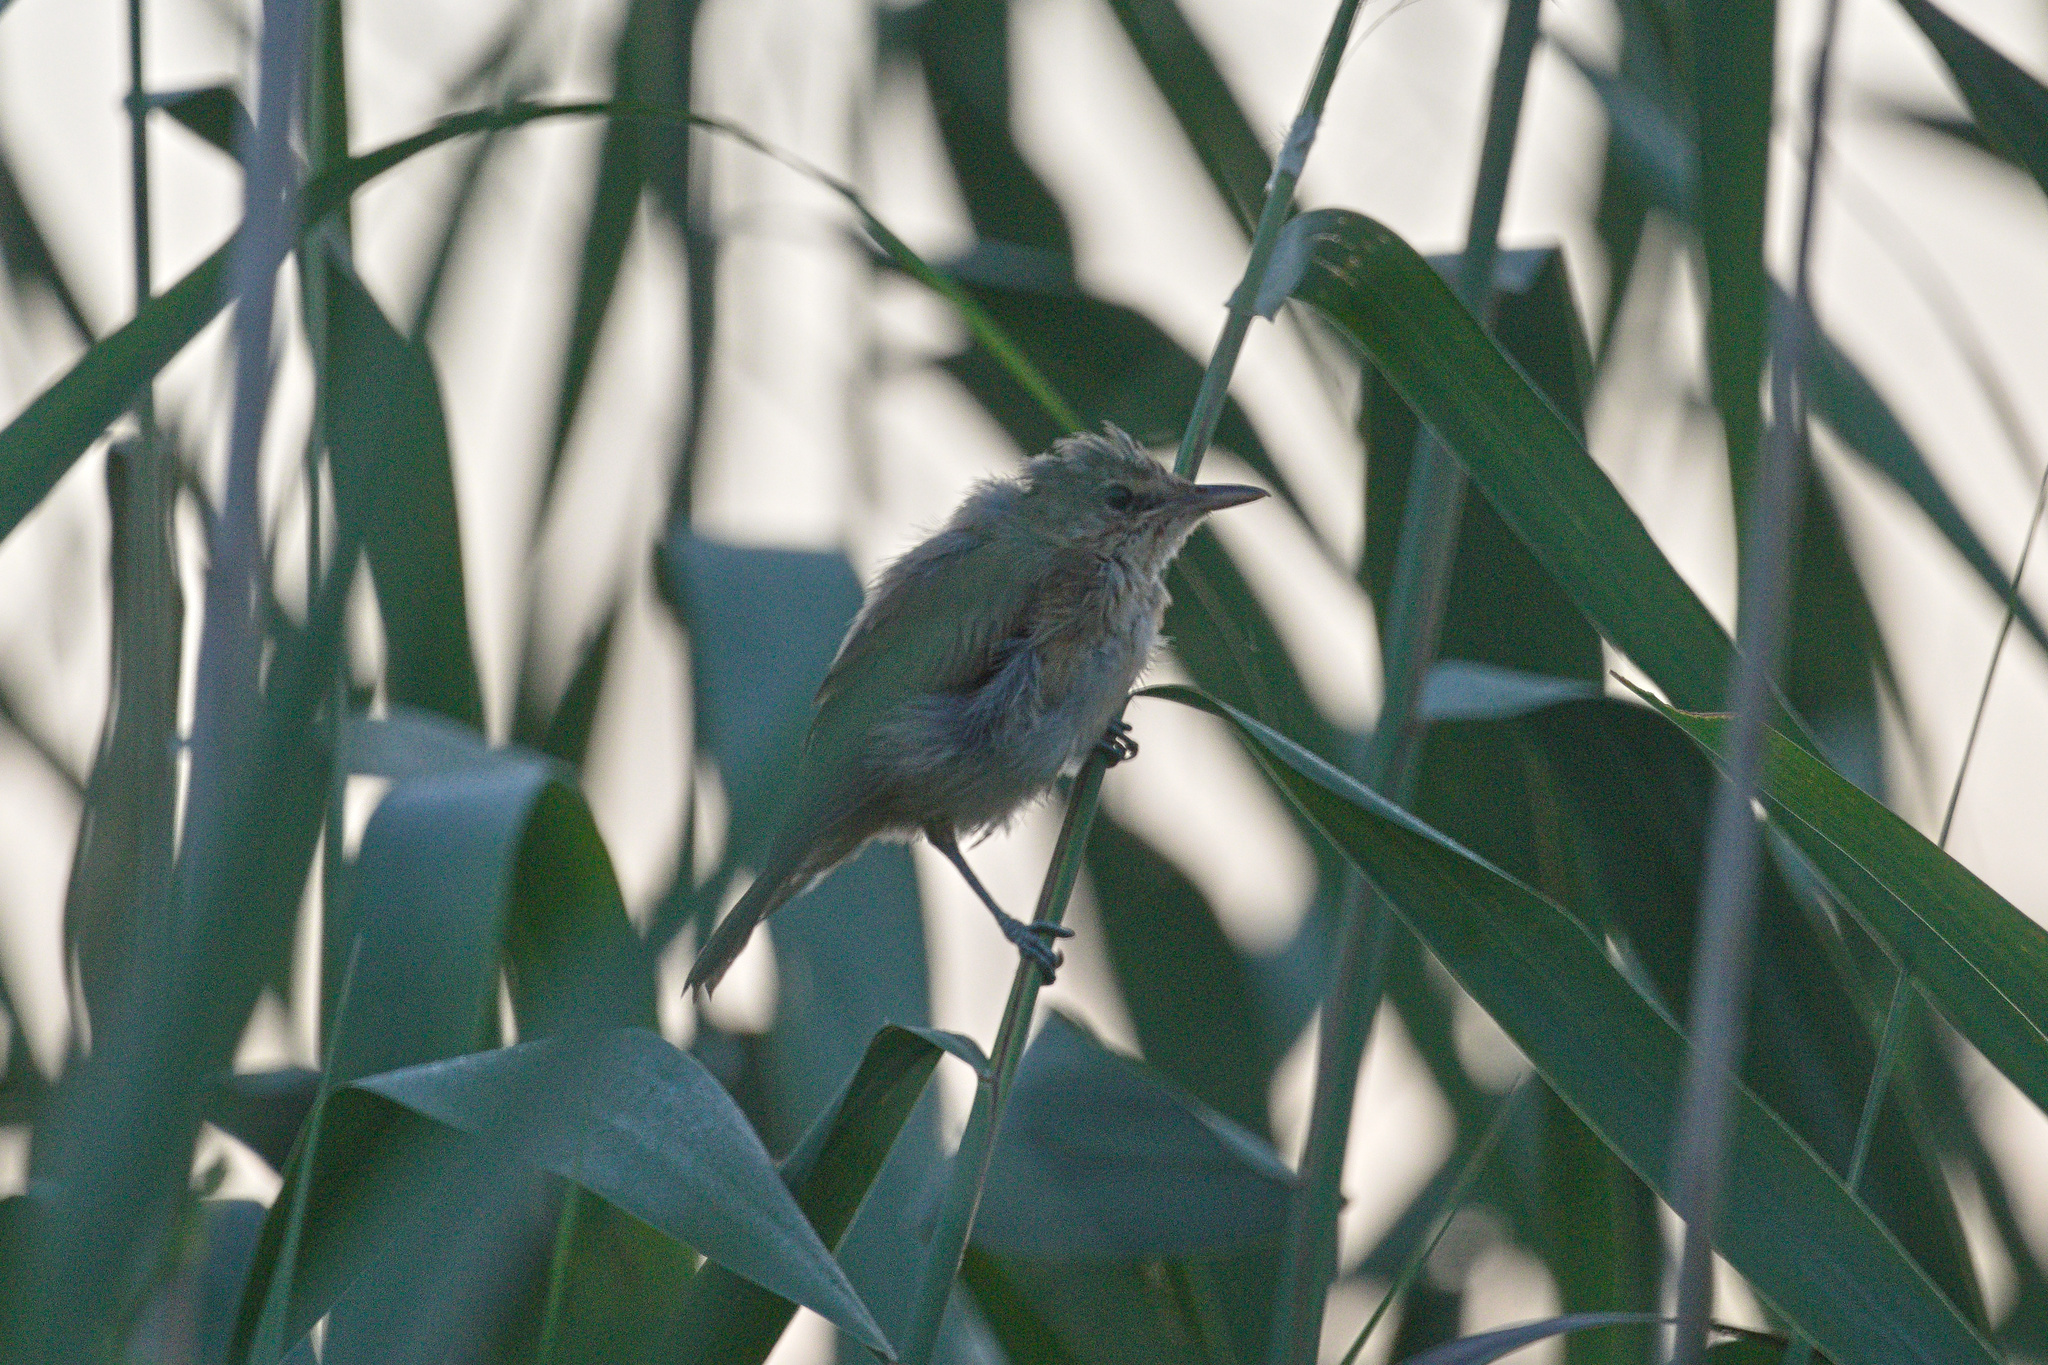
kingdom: Animalia
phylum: Chordata
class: Aves
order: Passeriformes
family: Acrocephalidae
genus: Acrocephalus
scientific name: Acrocephalus arundinaceus
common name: Great reed warbler
